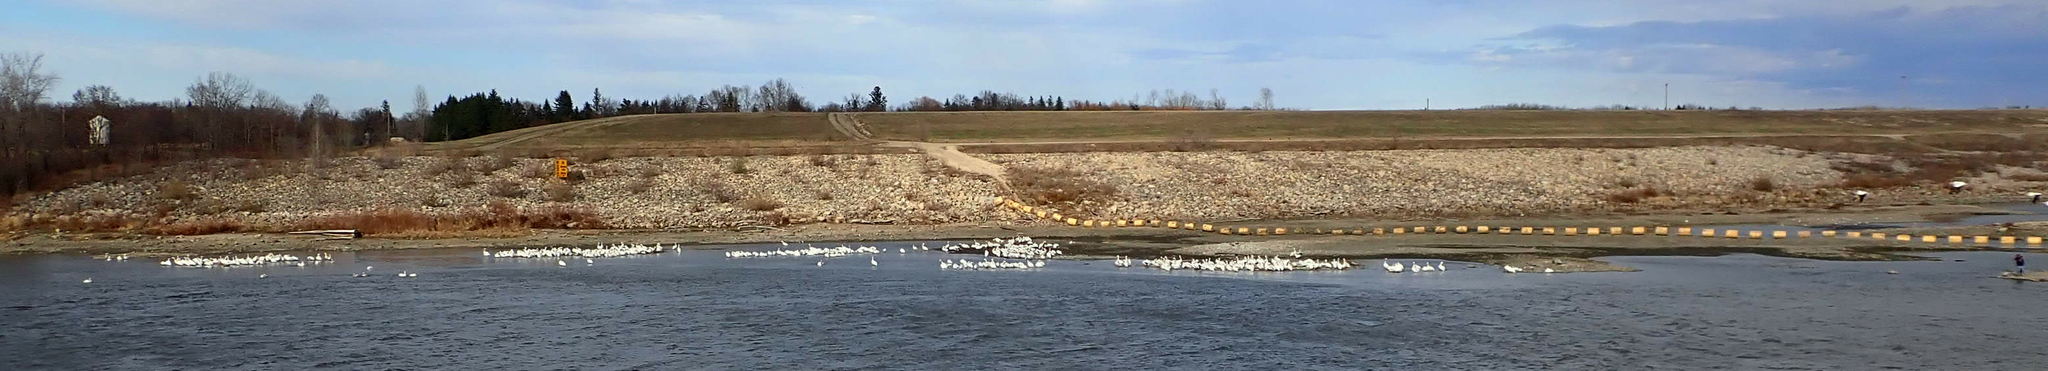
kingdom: Animalia
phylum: Chordata
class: Aves
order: Pelecaniformes
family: Pelecanidae
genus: Pelecanus
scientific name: Pelecanus erythrorhynchos
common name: American white pelican
